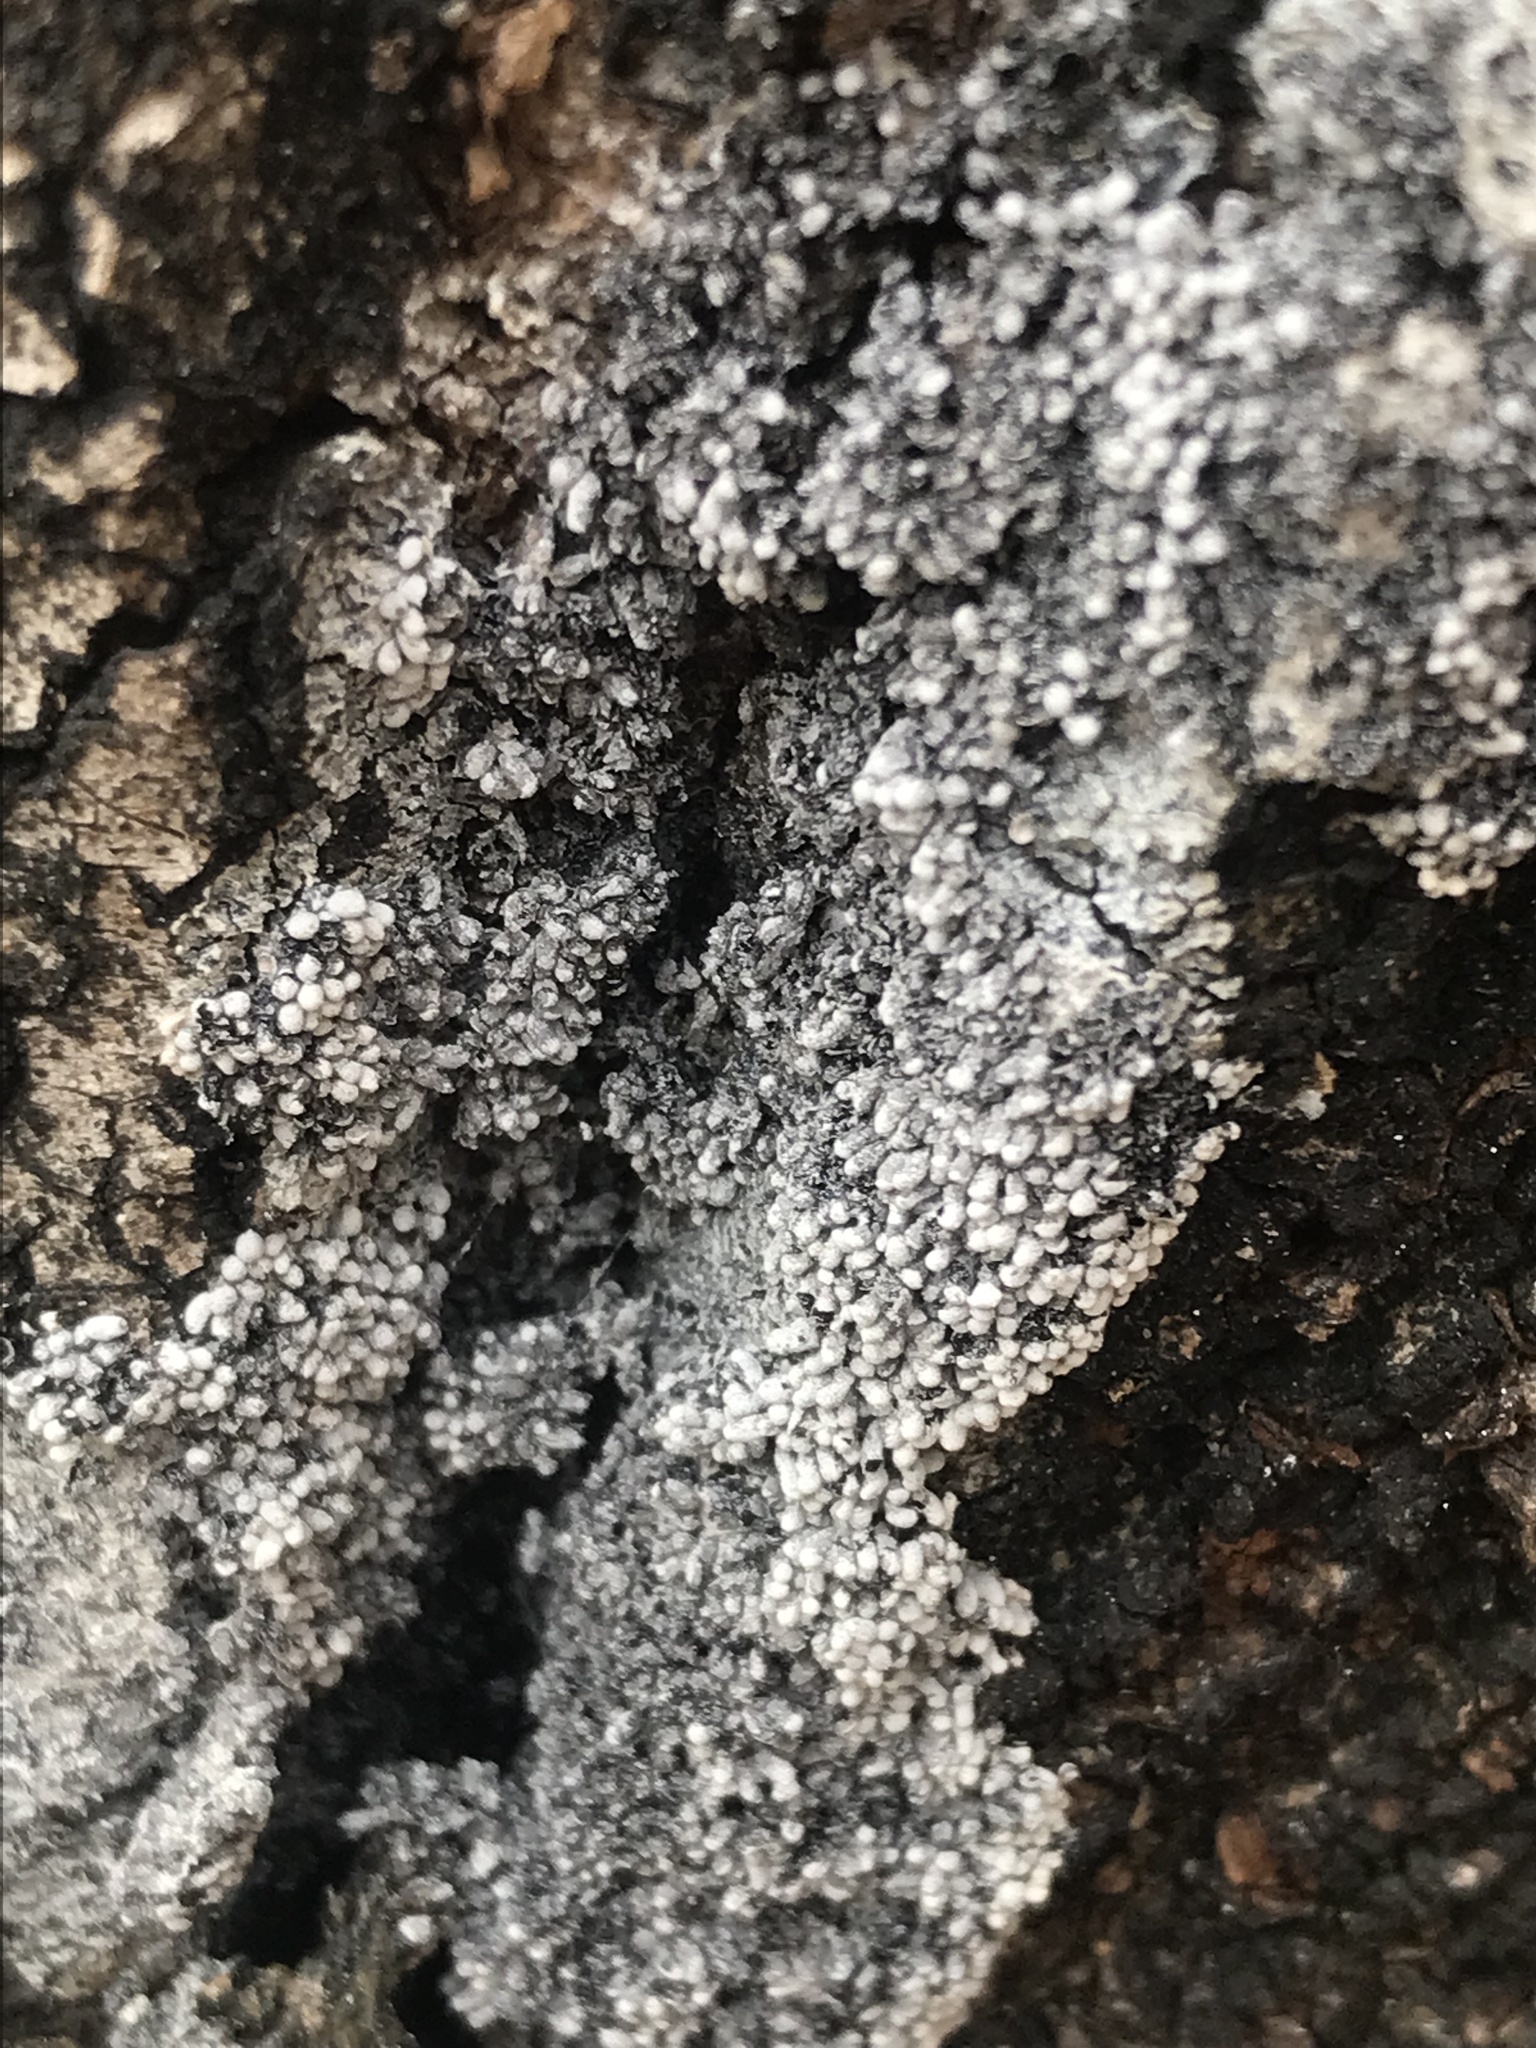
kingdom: Protozoa
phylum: Mycetozoa
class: Myxomycetes
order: Physarales
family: Physaraceae
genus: Physarum
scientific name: Physarum didermoides
